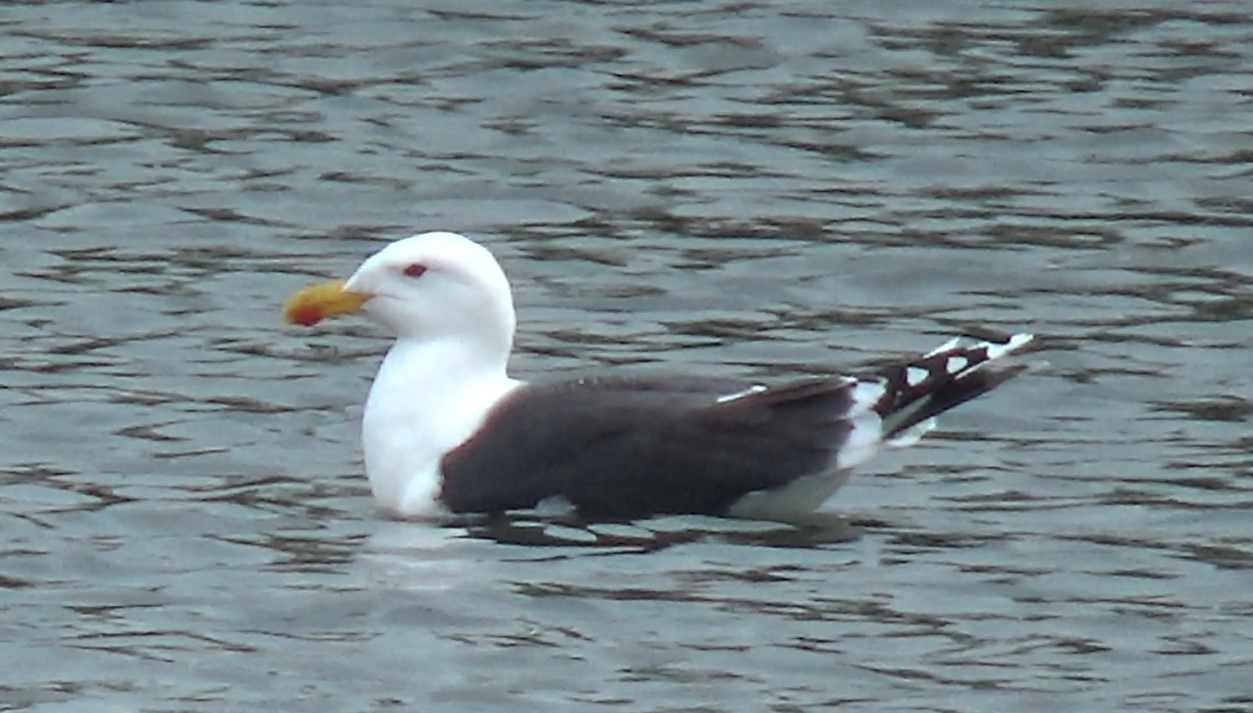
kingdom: Animalia
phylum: Chordata
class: Aves
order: Charadriiformes
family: Laridae
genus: Larus
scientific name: Larus marinus
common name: Great black-backed gull
